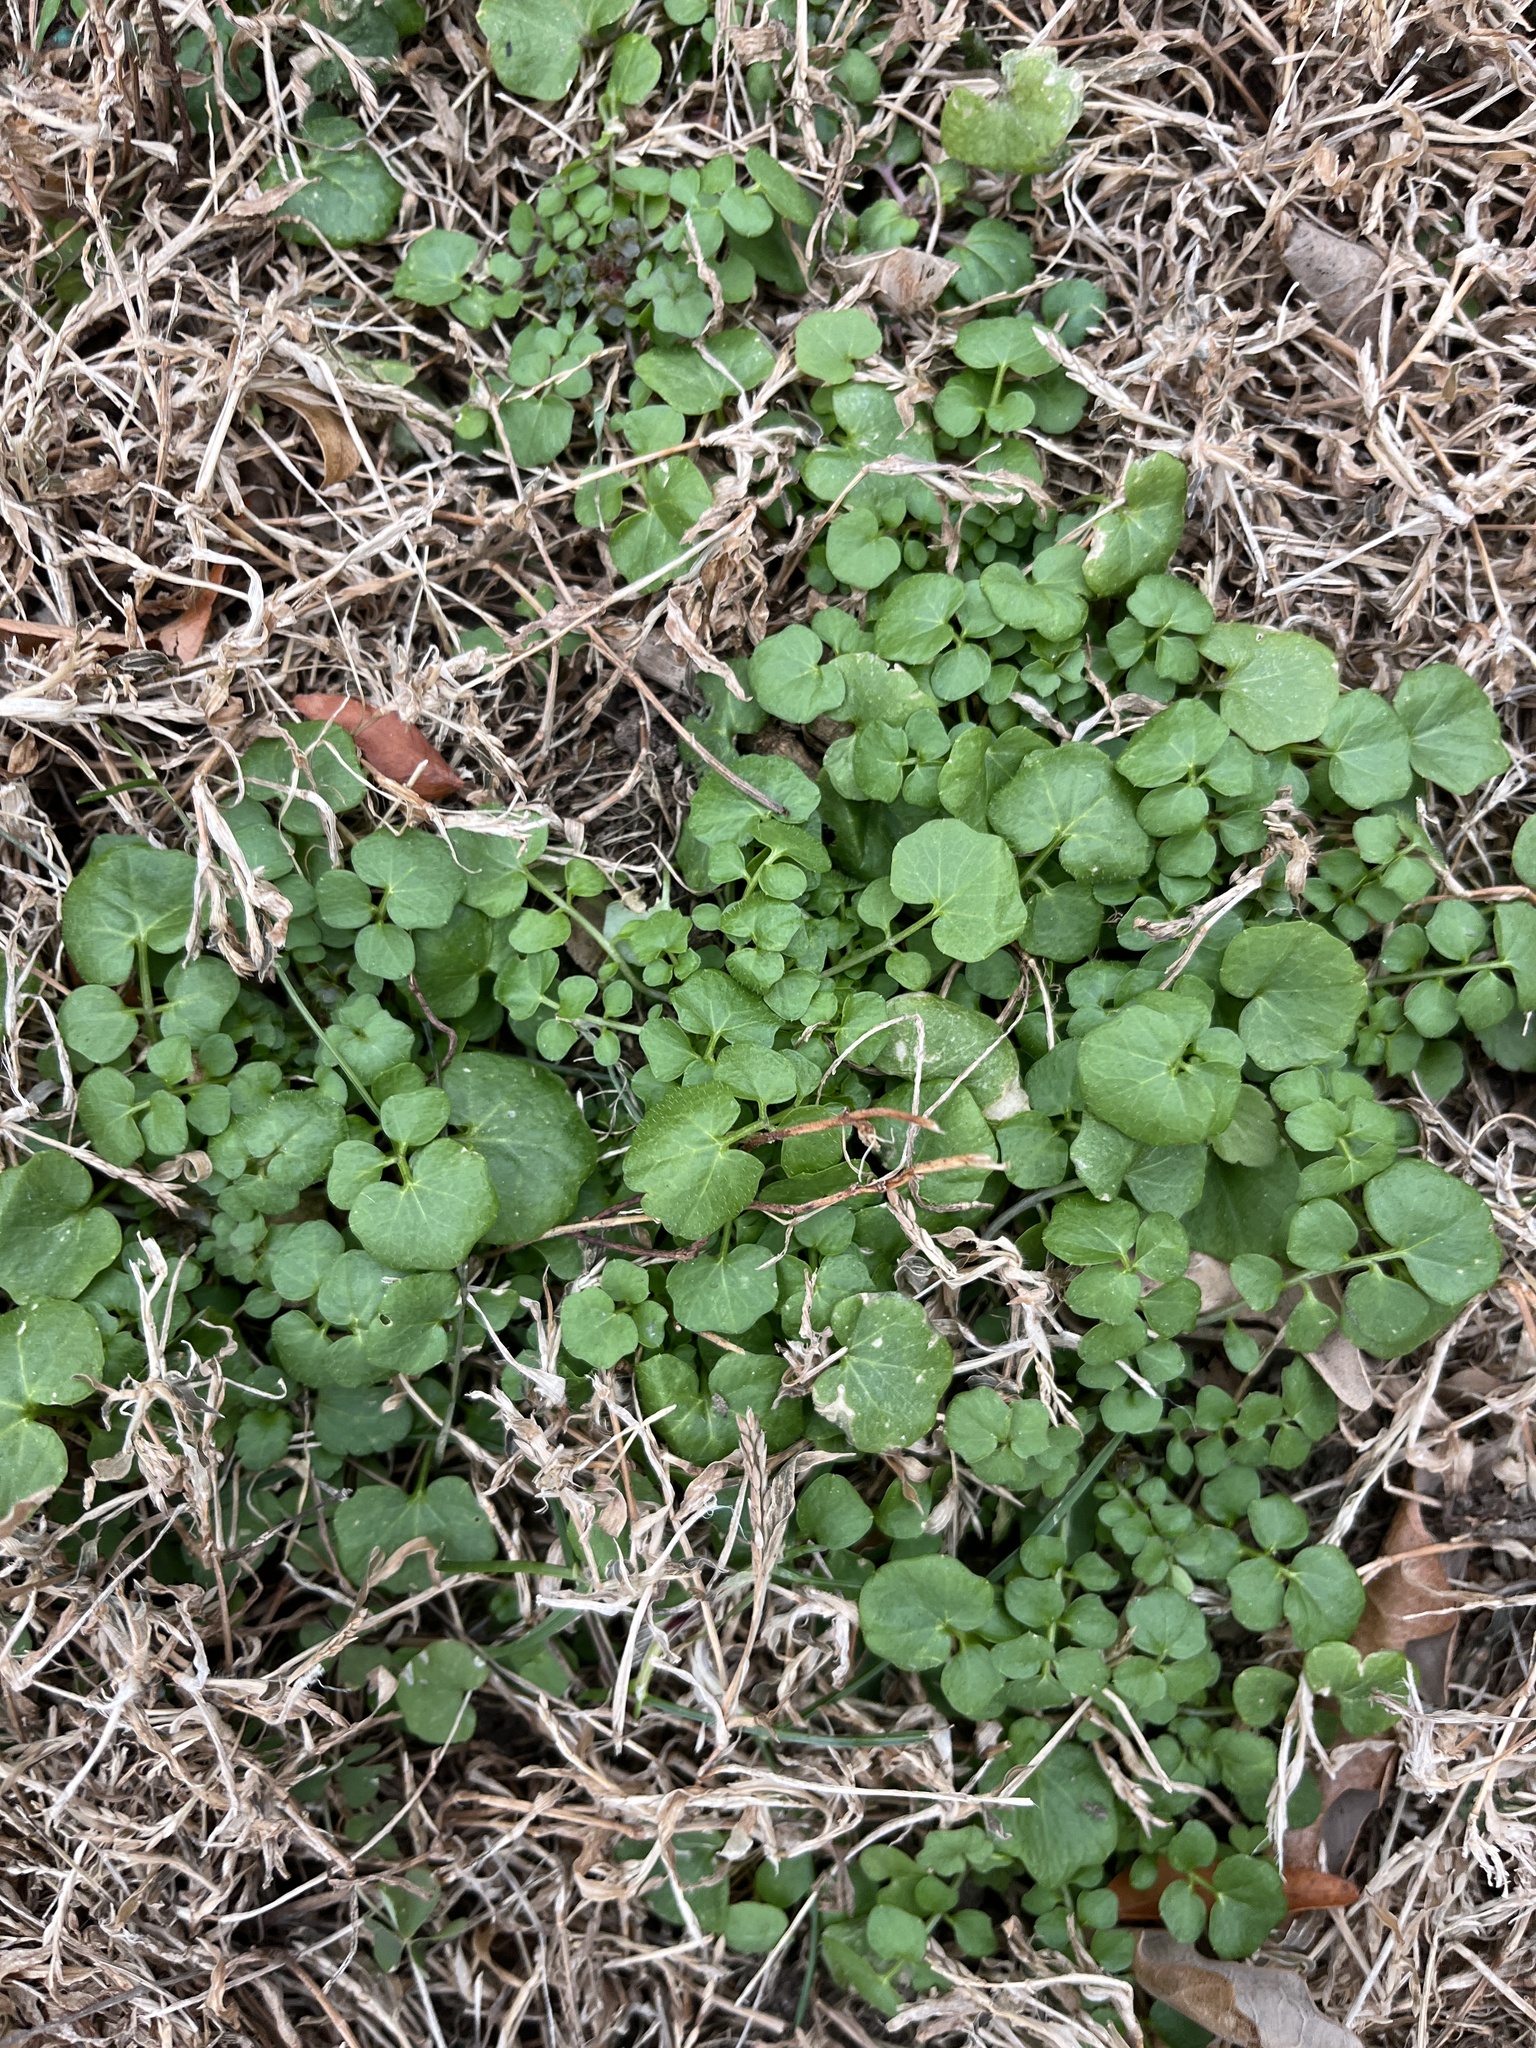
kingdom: Plantae
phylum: Tracheophyta
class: Magnoliopsida
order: Brassicales
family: Brassicaceae
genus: Cardamine
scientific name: Cardamine hirsuta
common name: Hairy bittercress
